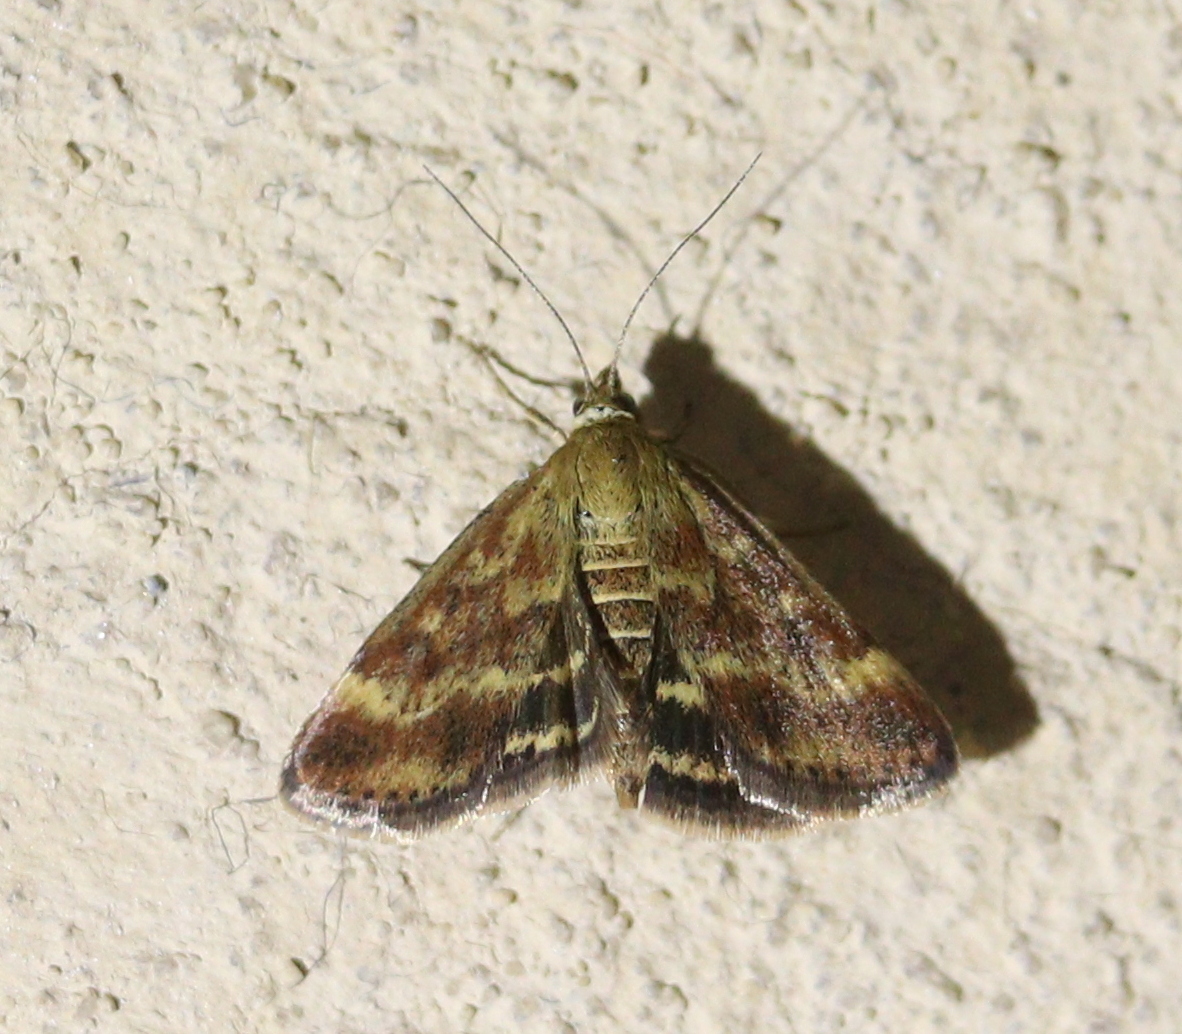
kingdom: Animalia
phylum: Arthropoda
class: Insecta
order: Lepidoptera
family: Crambidae
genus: Pyrausta
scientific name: Pyrausta despicata
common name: Straw-barred pearl
